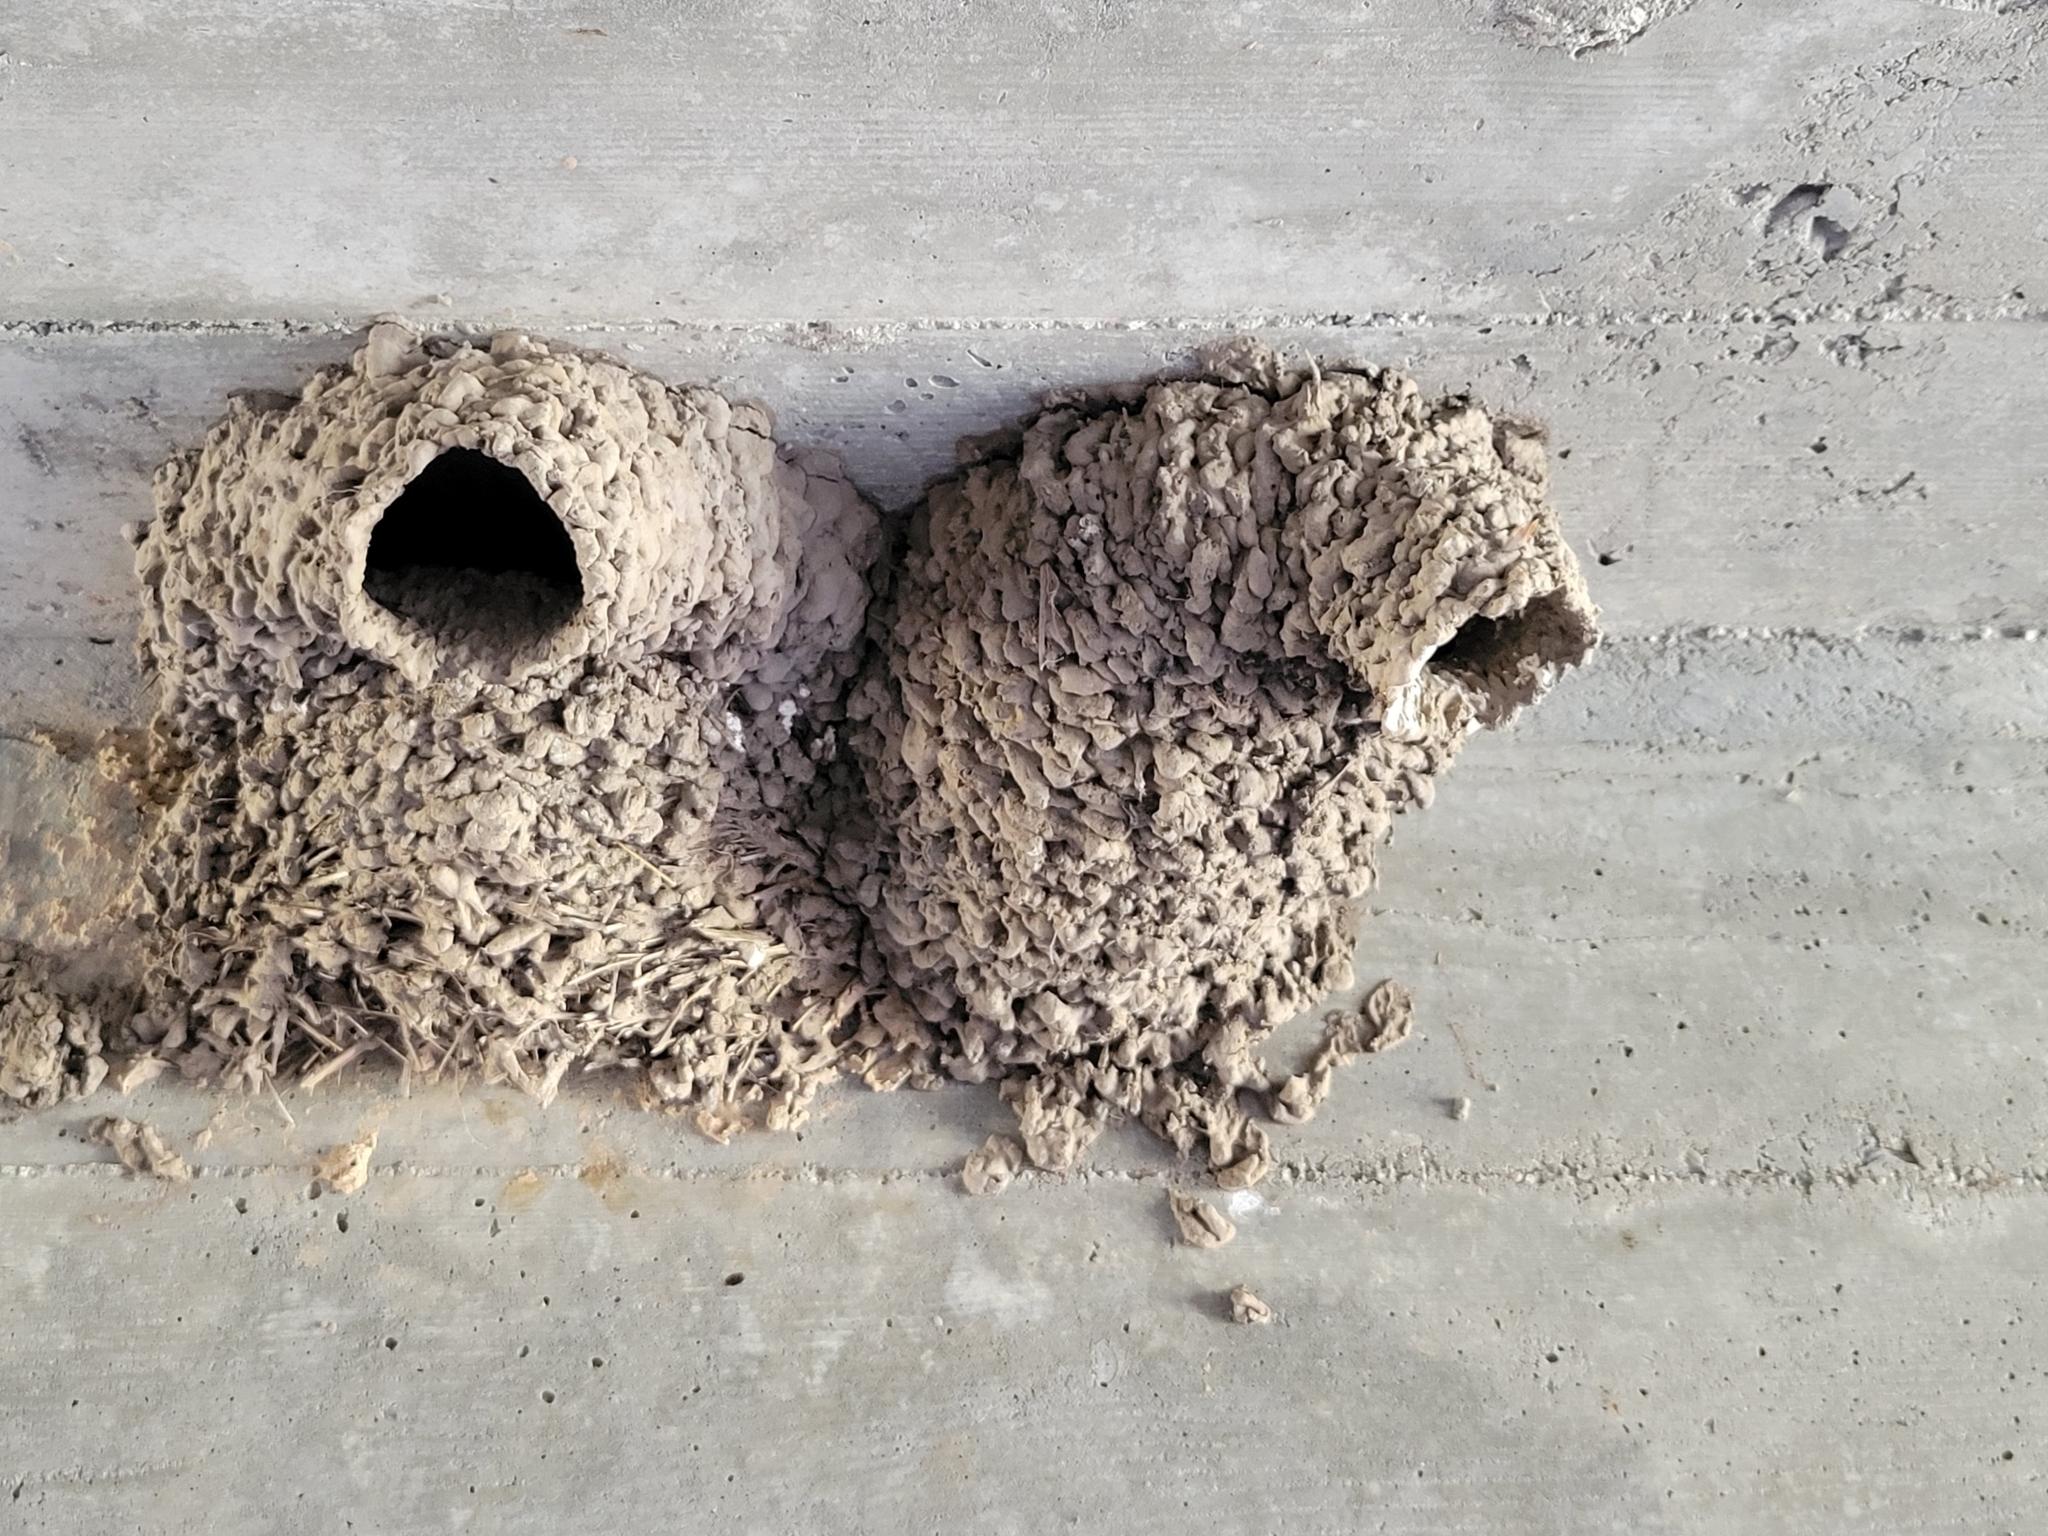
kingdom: Animalia
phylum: Chordata
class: Aves
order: Passeriformes
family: Hirundinidae
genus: Petrochelidon
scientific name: Petrochelidon pyrrhonota
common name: American cliff swallow
